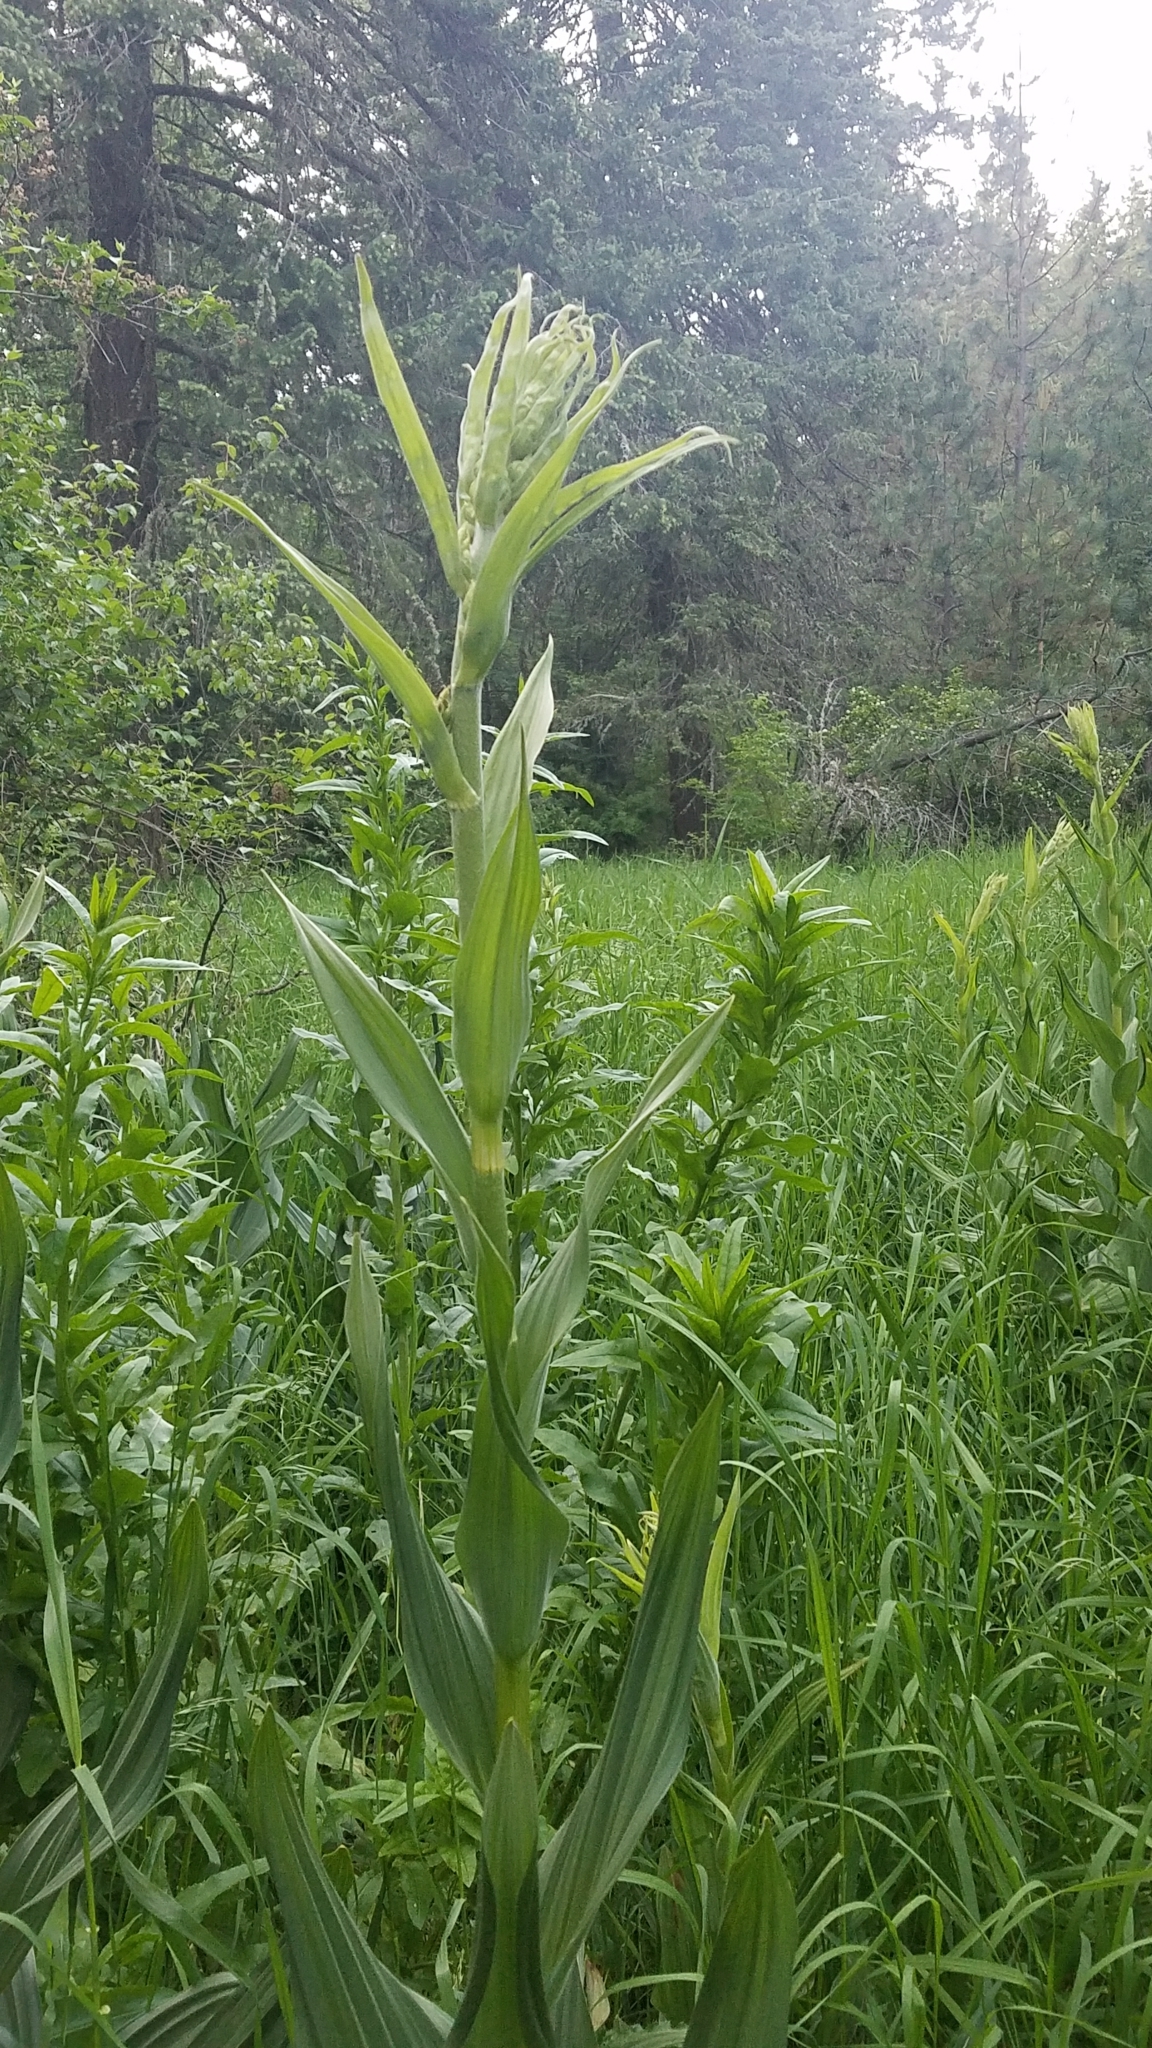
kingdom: Plantae
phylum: Tracheophyta
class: Liliopsida
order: Liliales
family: Melanthiaceae
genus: Veratrum
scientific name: Veratrum californicum
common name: California veratrum
